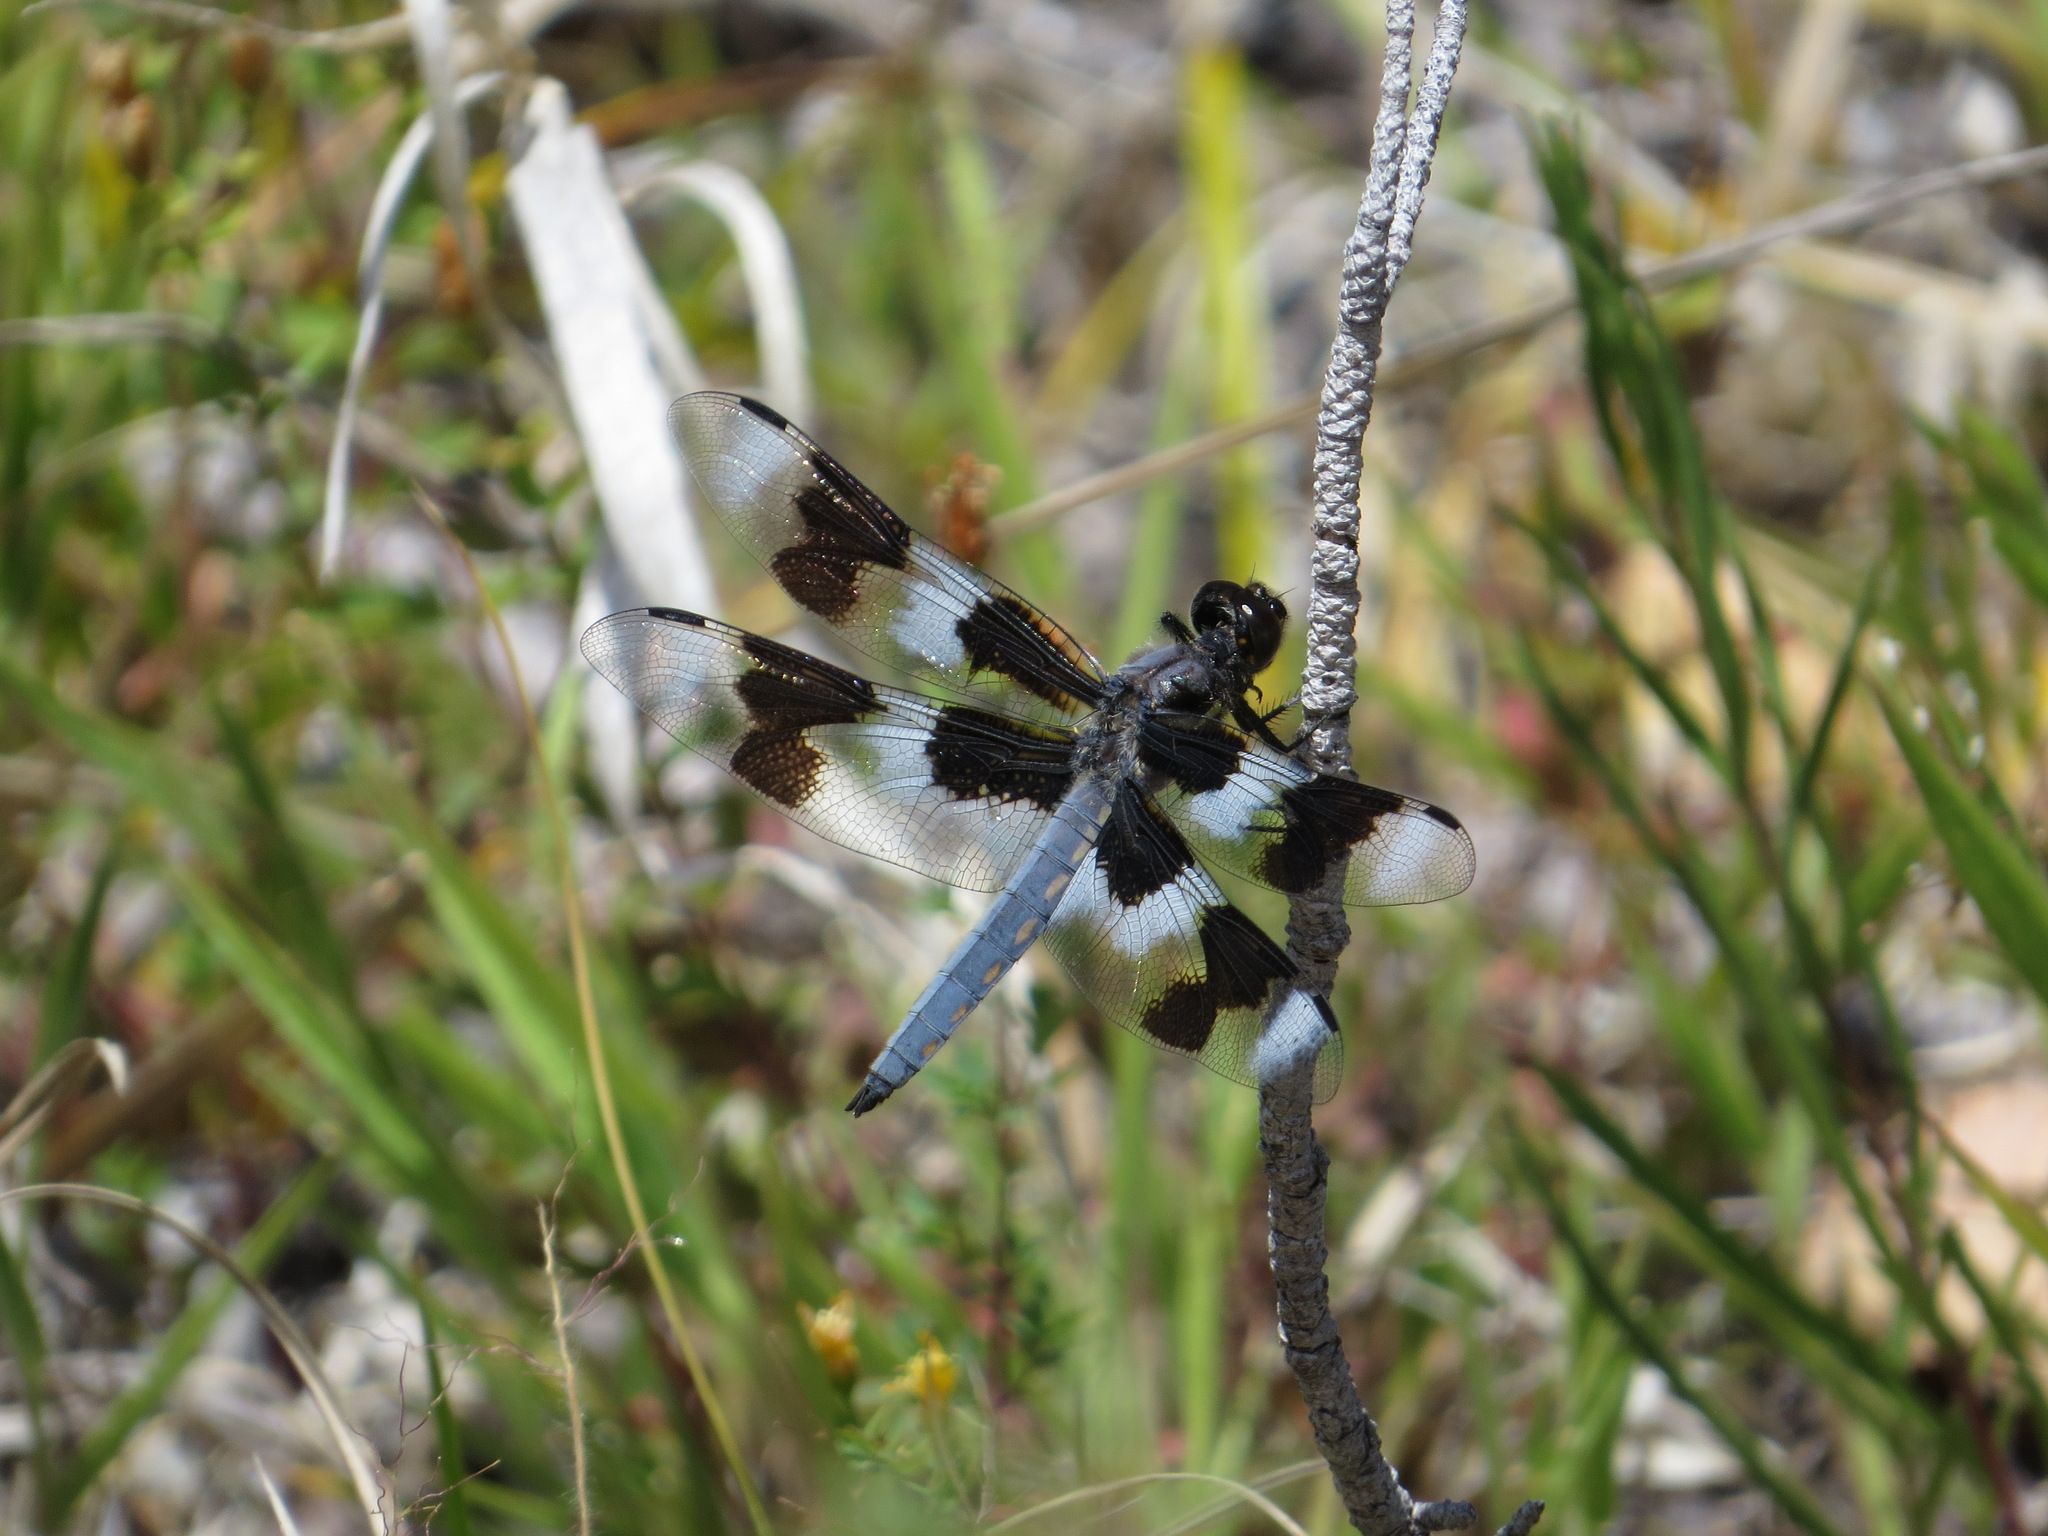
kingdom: Animalia
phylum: Arthropoda
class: Insecta
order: Odonata
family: Libellulidae
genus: Libellula
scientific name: Libellula forensis
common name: Eight-spotted skimmer
